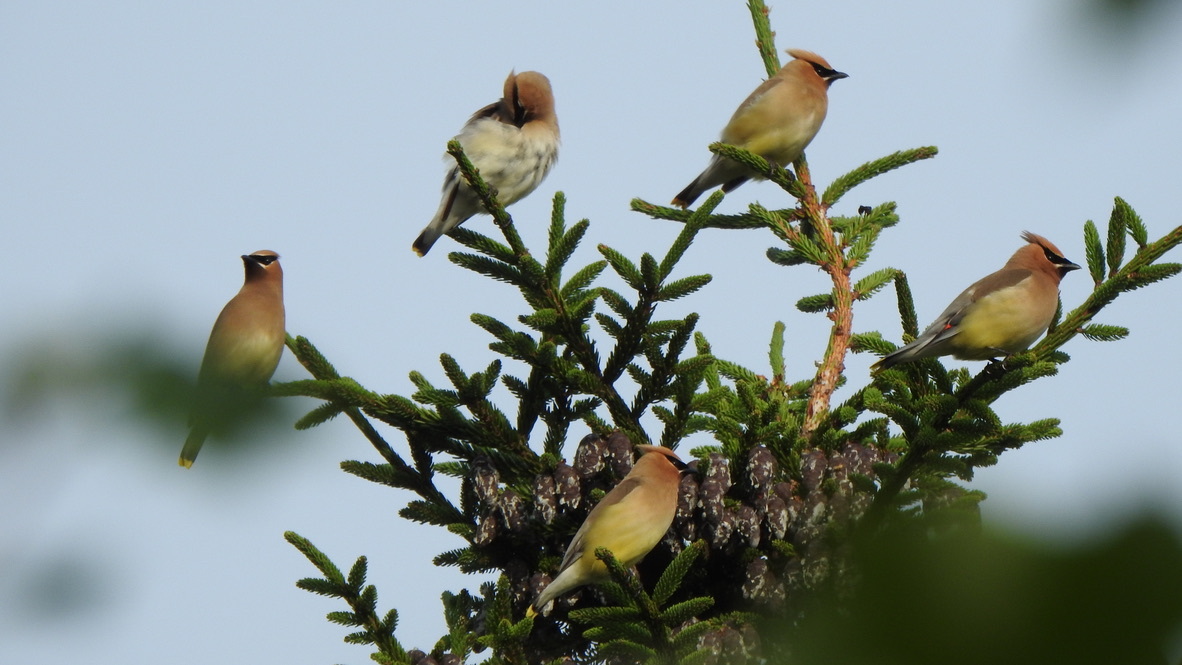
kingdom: Animalia
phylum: Chordata
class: Aves
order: Passeriformes
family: Bombycillidae
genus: Bombycilla
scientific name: Bombycilla cedrorum
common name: Cedar waxwing
